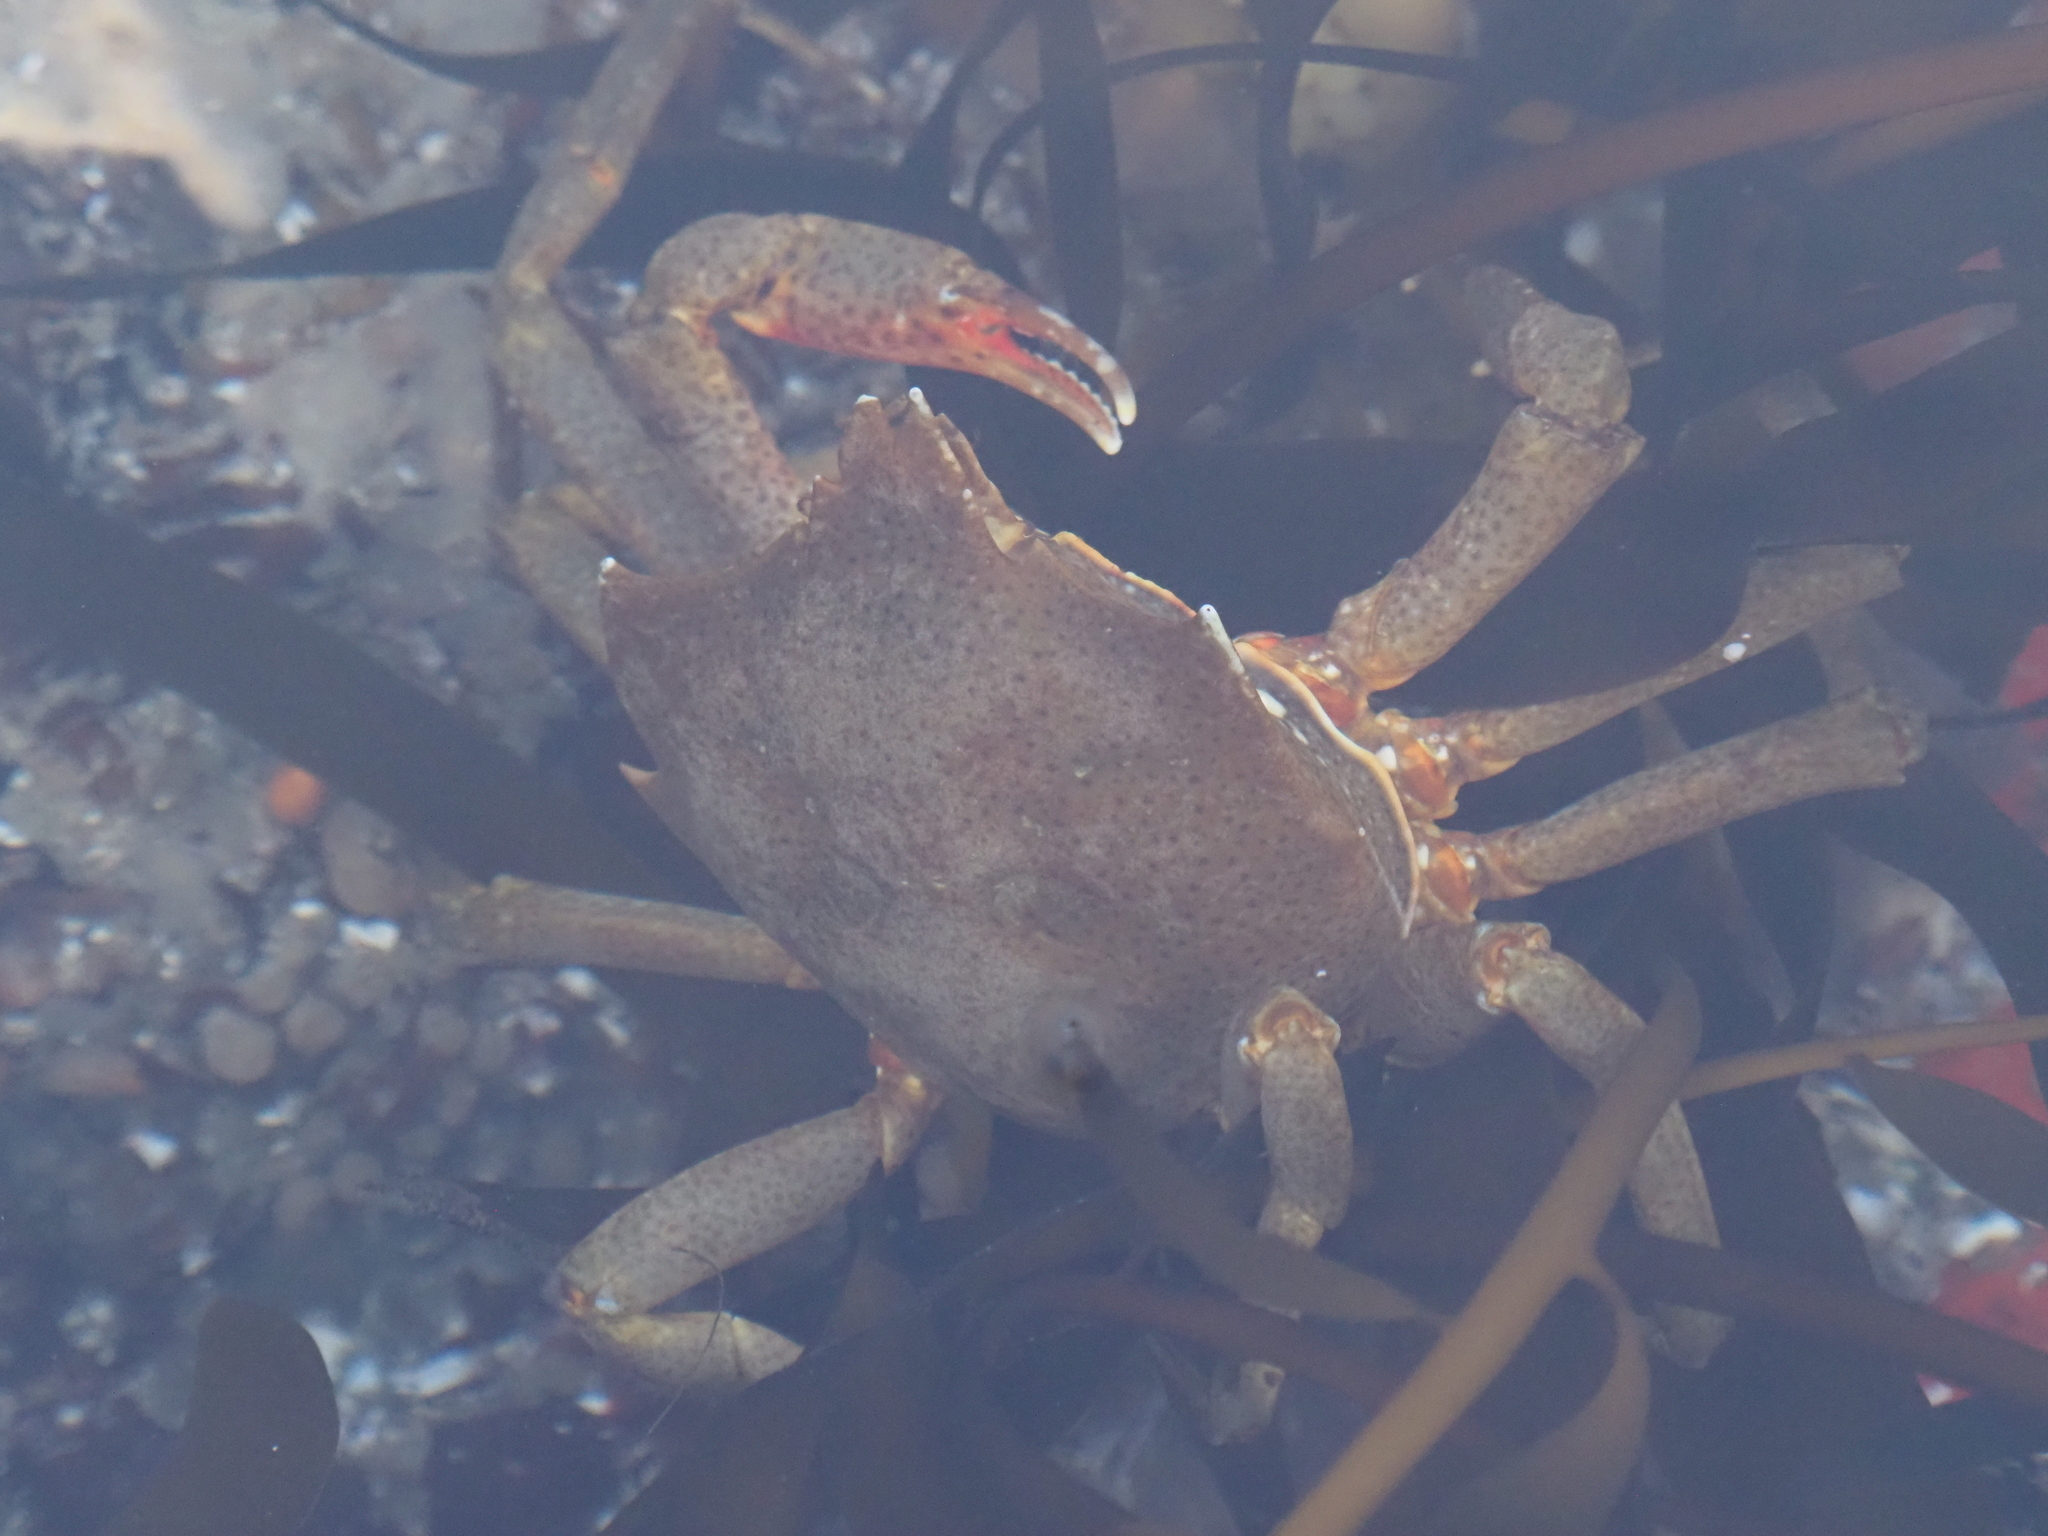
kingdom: Animalia
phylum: Arthropoda
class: Malacostraca
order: Decapoda
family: Epialtidae
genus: Pugettia
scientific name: Pugettia producta
